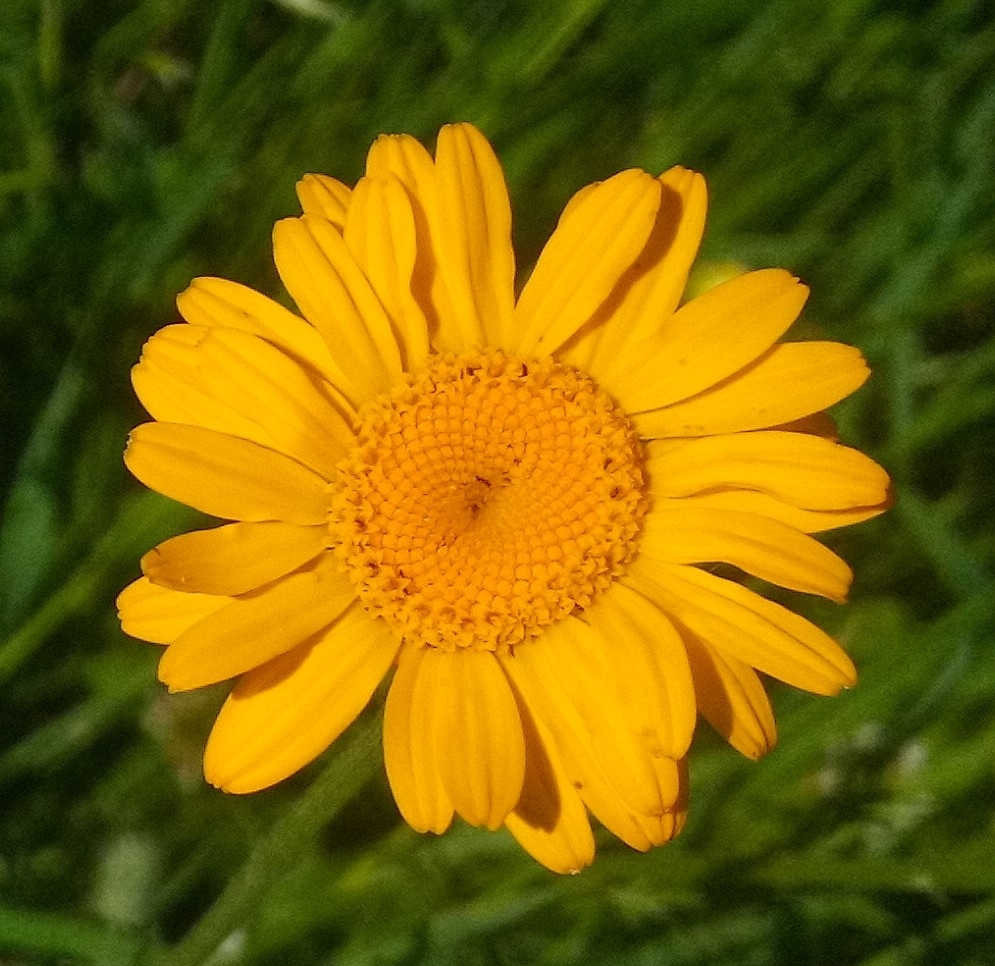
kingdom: Plantae
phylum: Tracheophyta
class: Magnoliopsida
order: Asterales
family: Asteraceae
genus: Cota
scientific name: Cota tinctoria
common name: Golden chamomile
